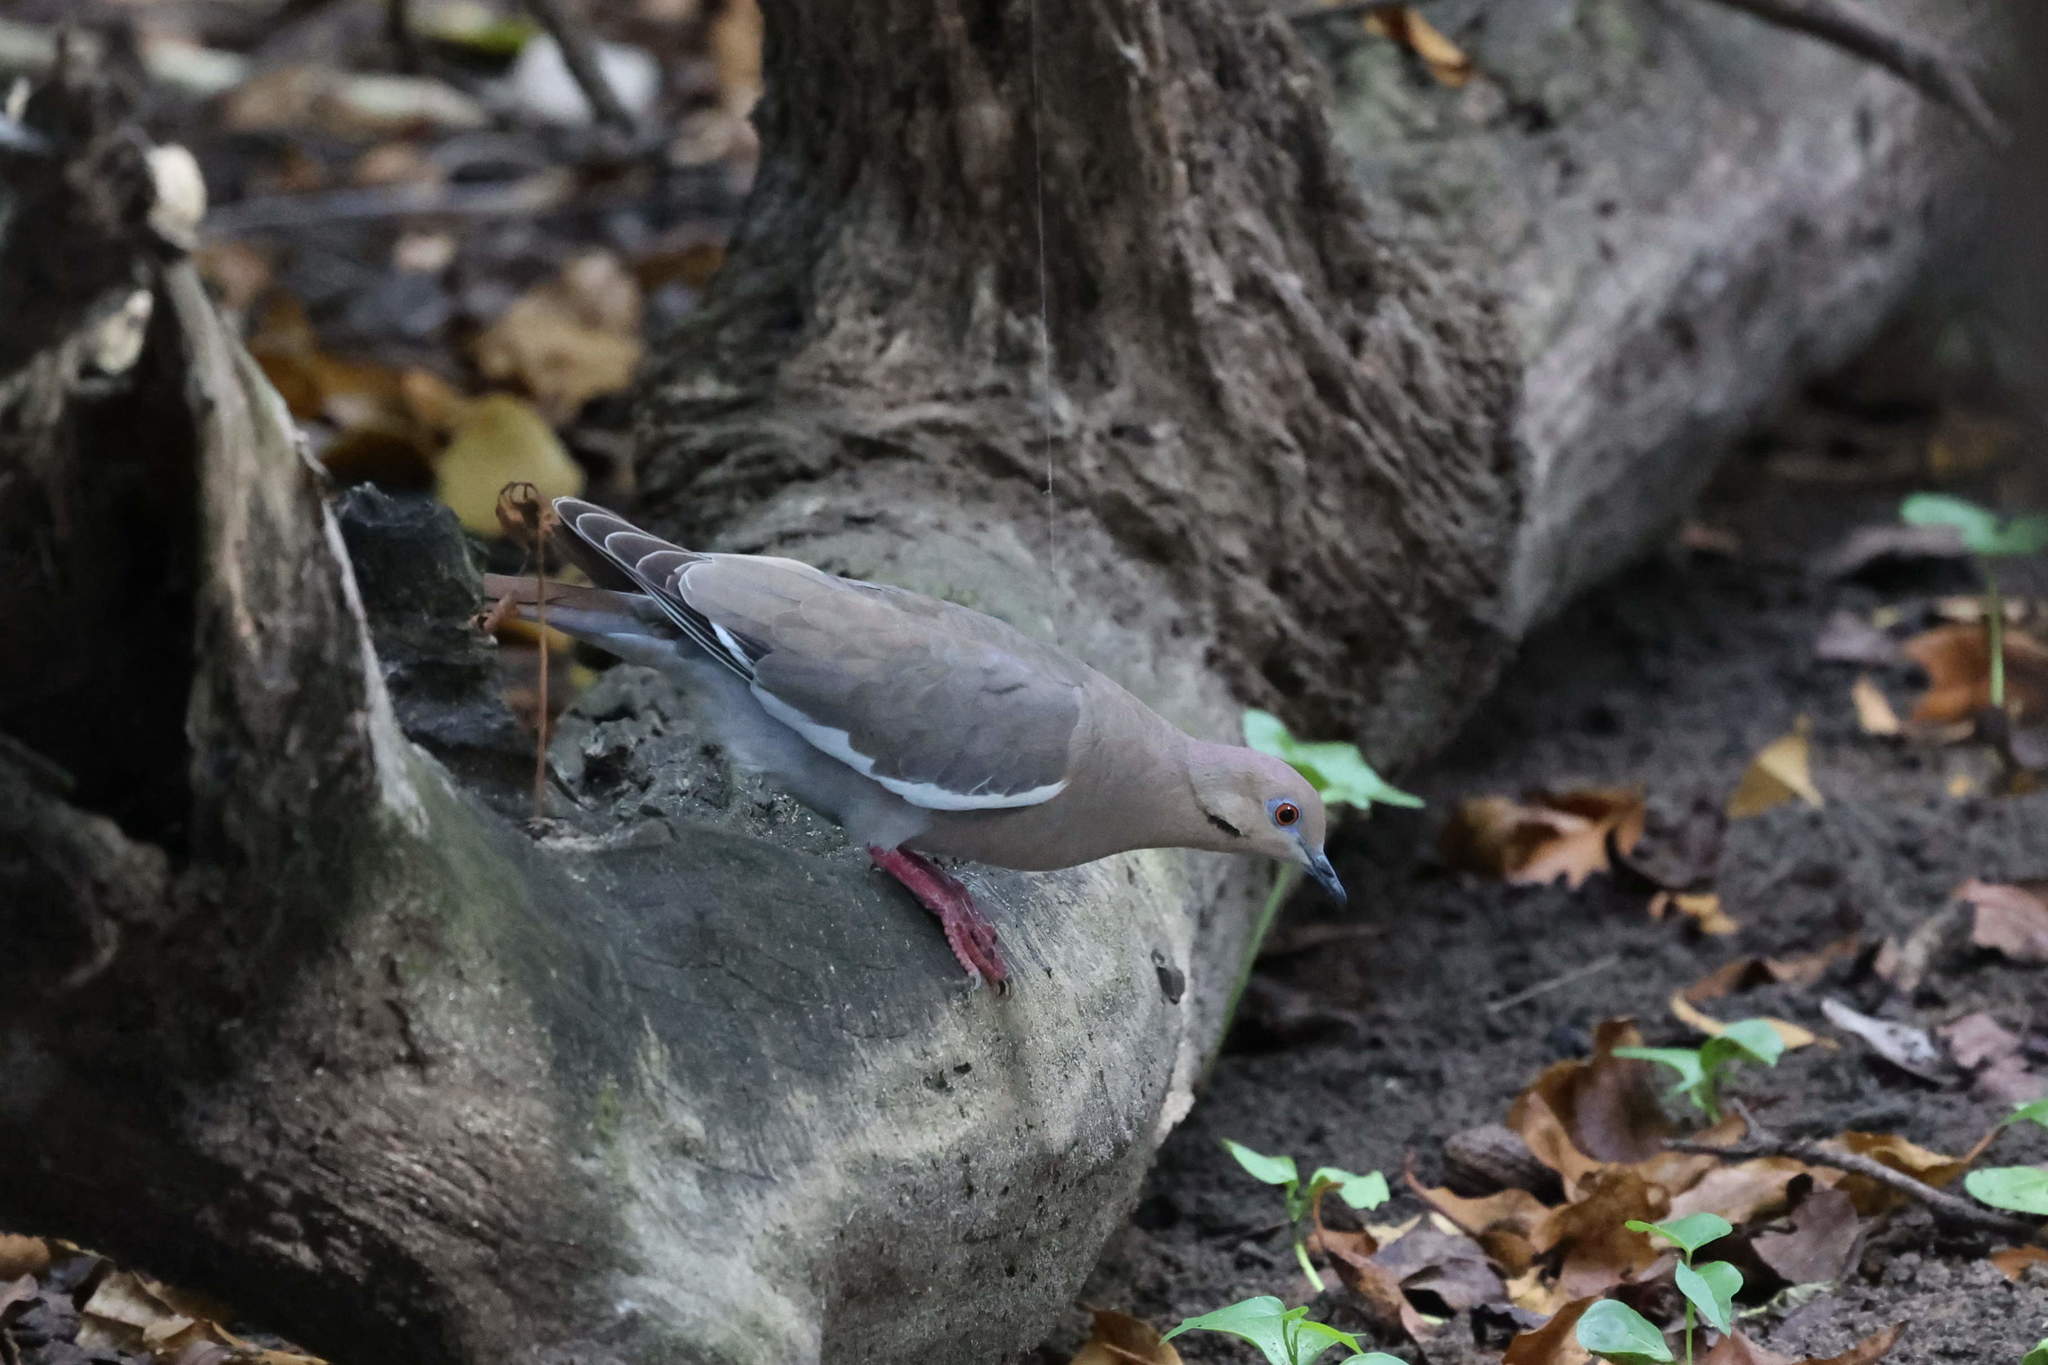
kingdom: Animalia
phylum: Chordata
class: Aves
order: Columbiformes
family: Columbidae
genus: Zenaida
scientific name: Zenaida asiatica
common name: White-winged dove
